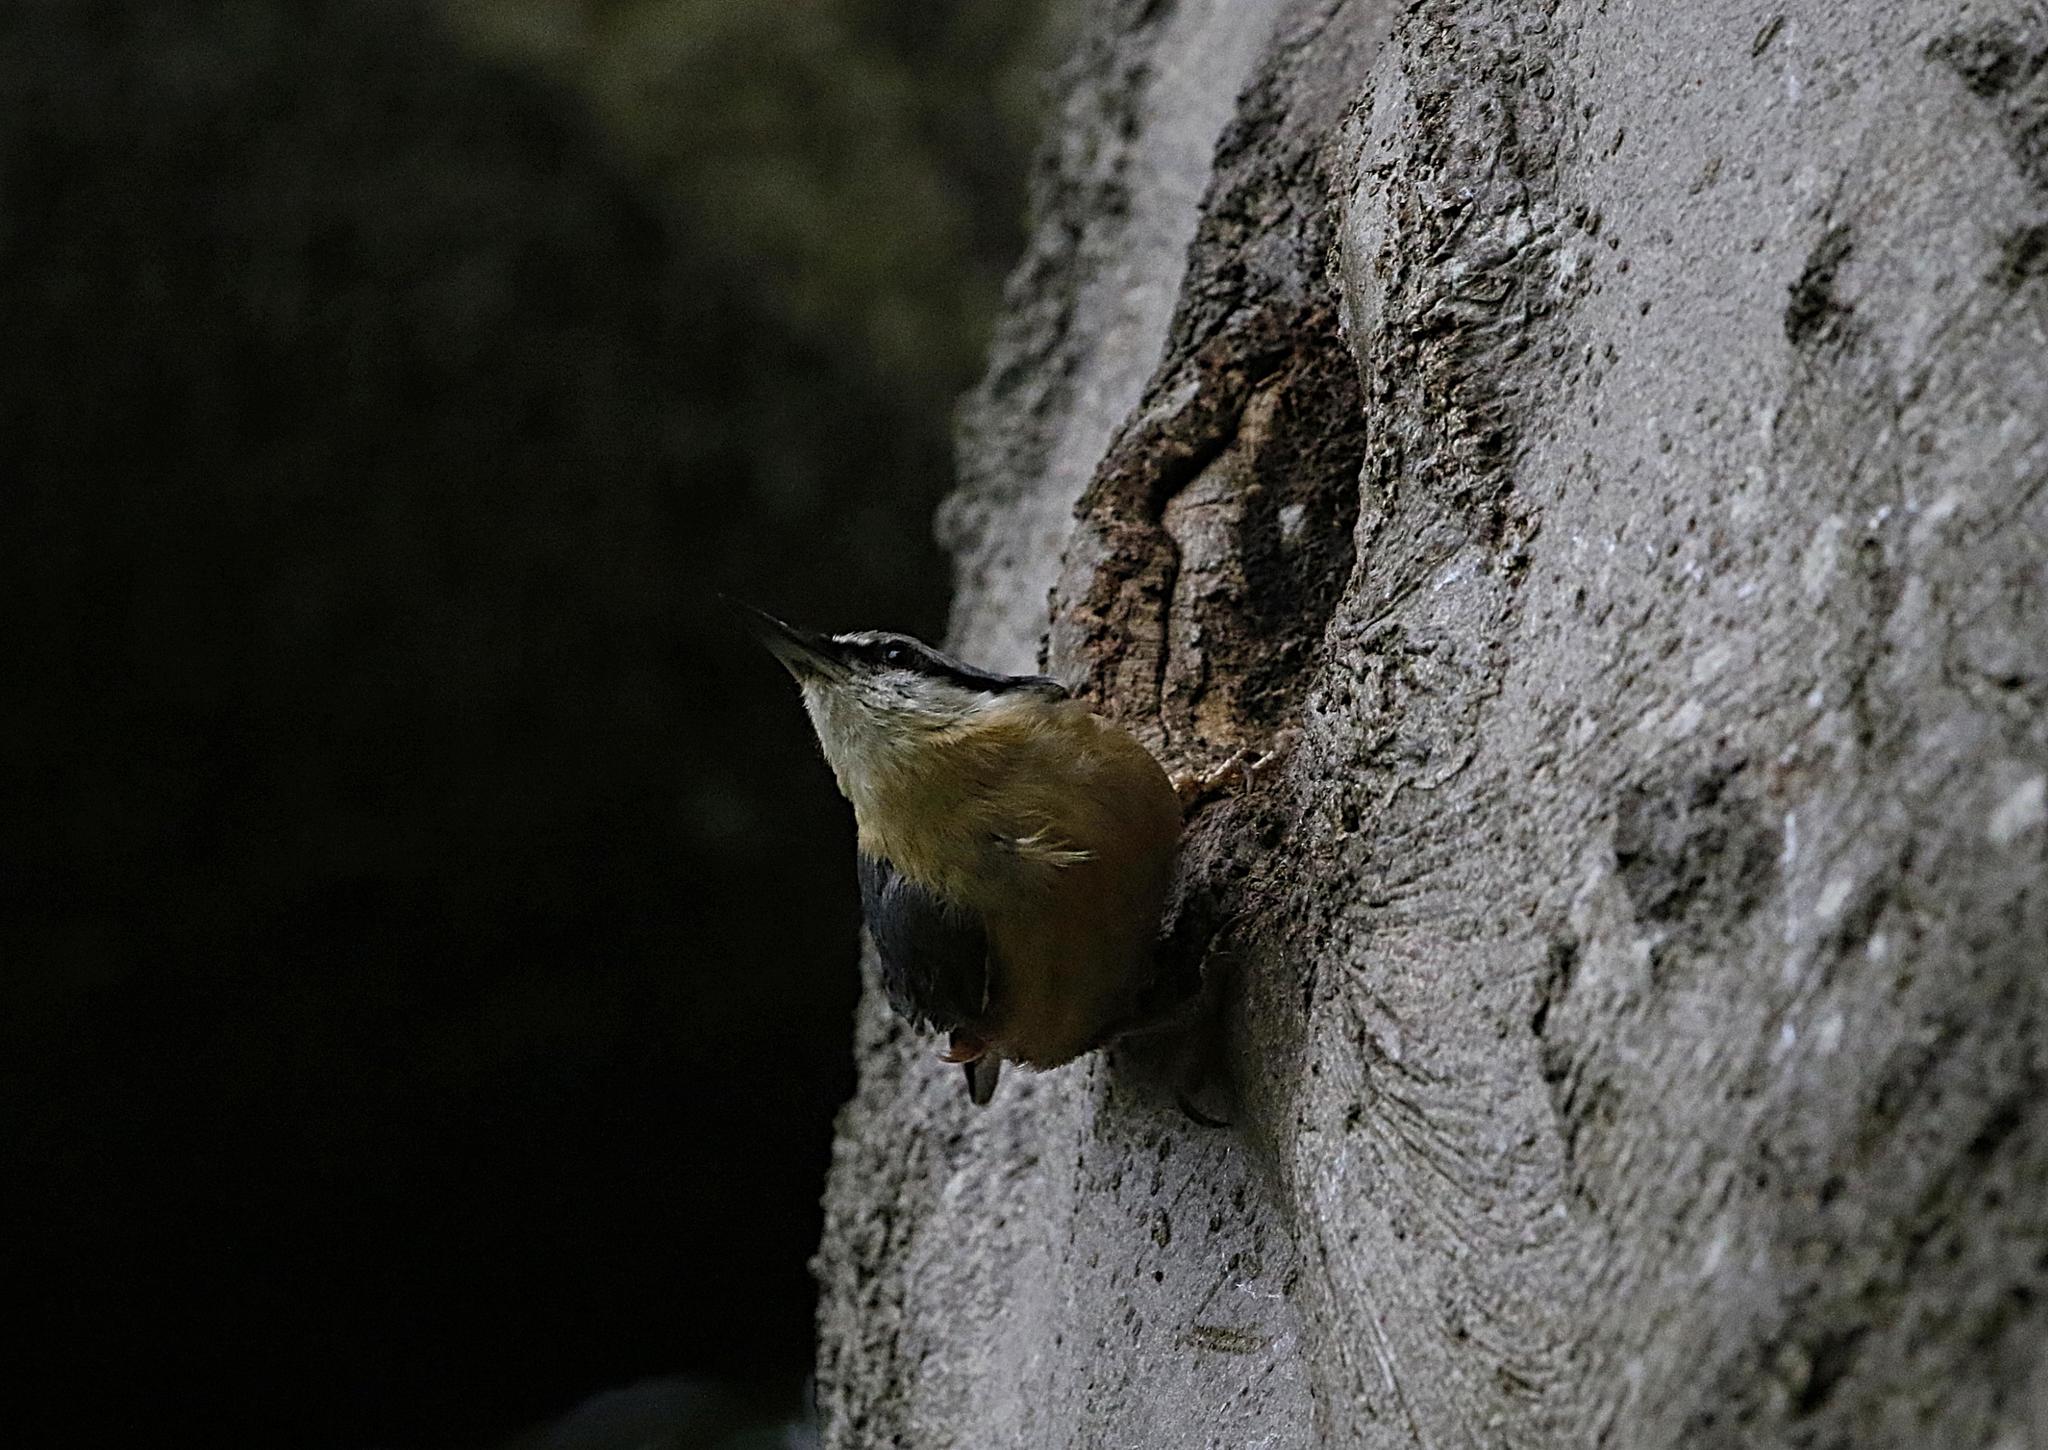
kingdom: Animalia
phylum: Chordata
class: Aves
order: Passeriformes
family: Sittidae
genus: Sitta
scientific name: Sitta europaea
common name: Eurasian nuthatch
